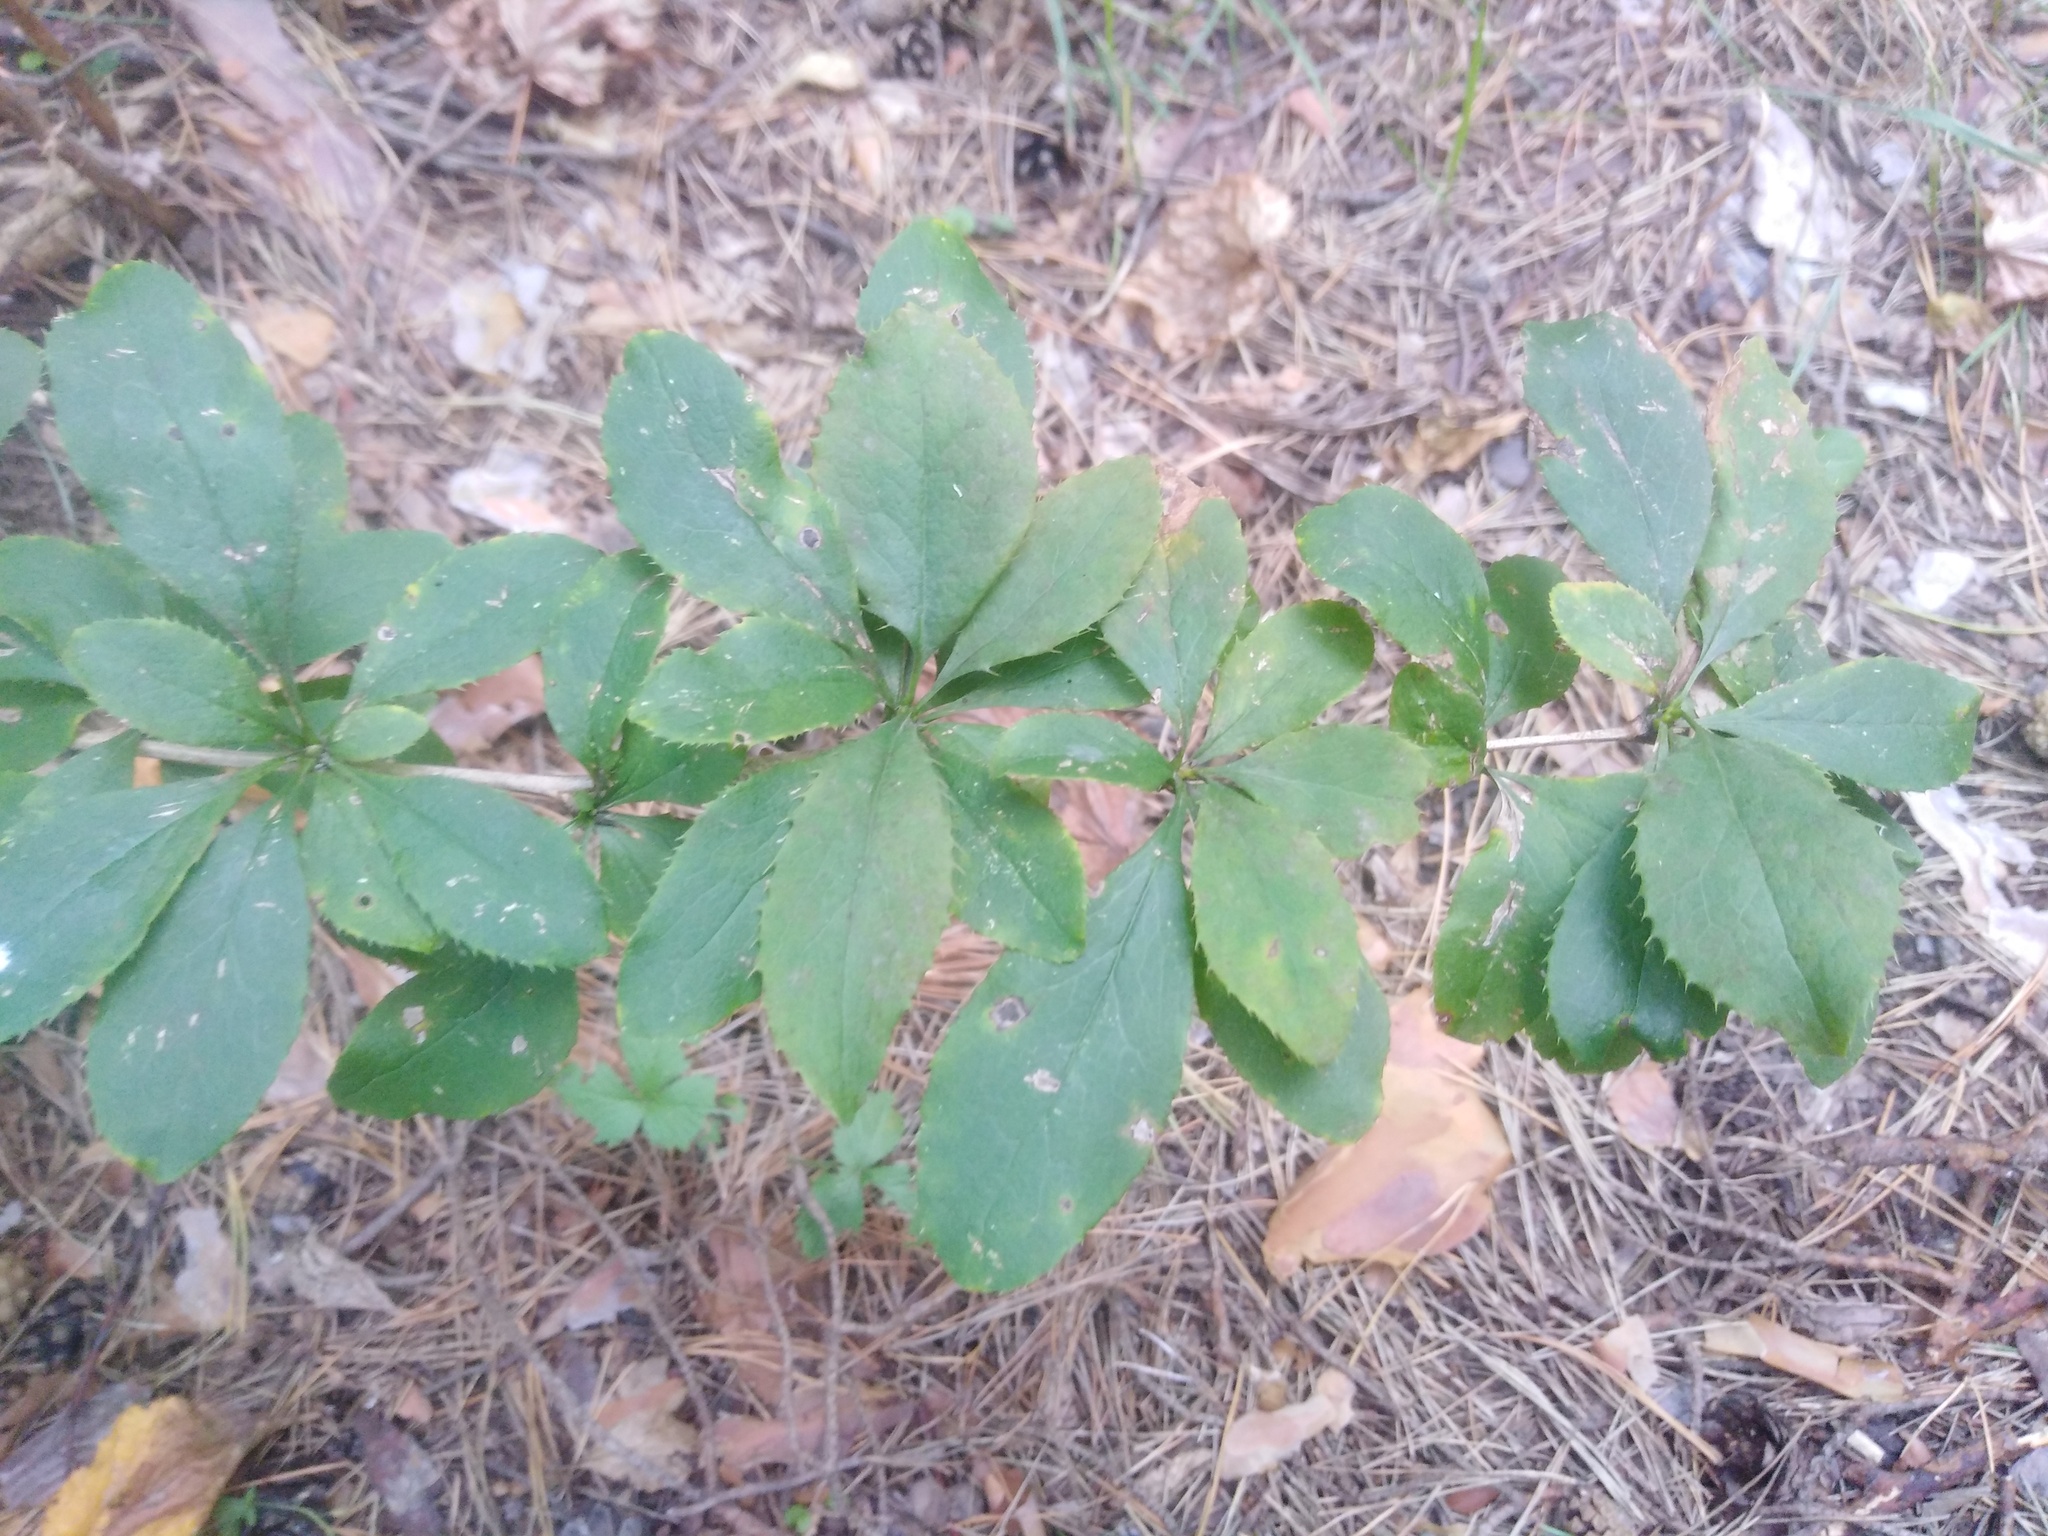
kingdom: Plantae
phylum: Tracheophyta
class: Magnoliopsida
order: Ranunculales
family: Berberidaceae
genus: Berberis
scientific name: Berberis vulgaris
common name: Barberry
